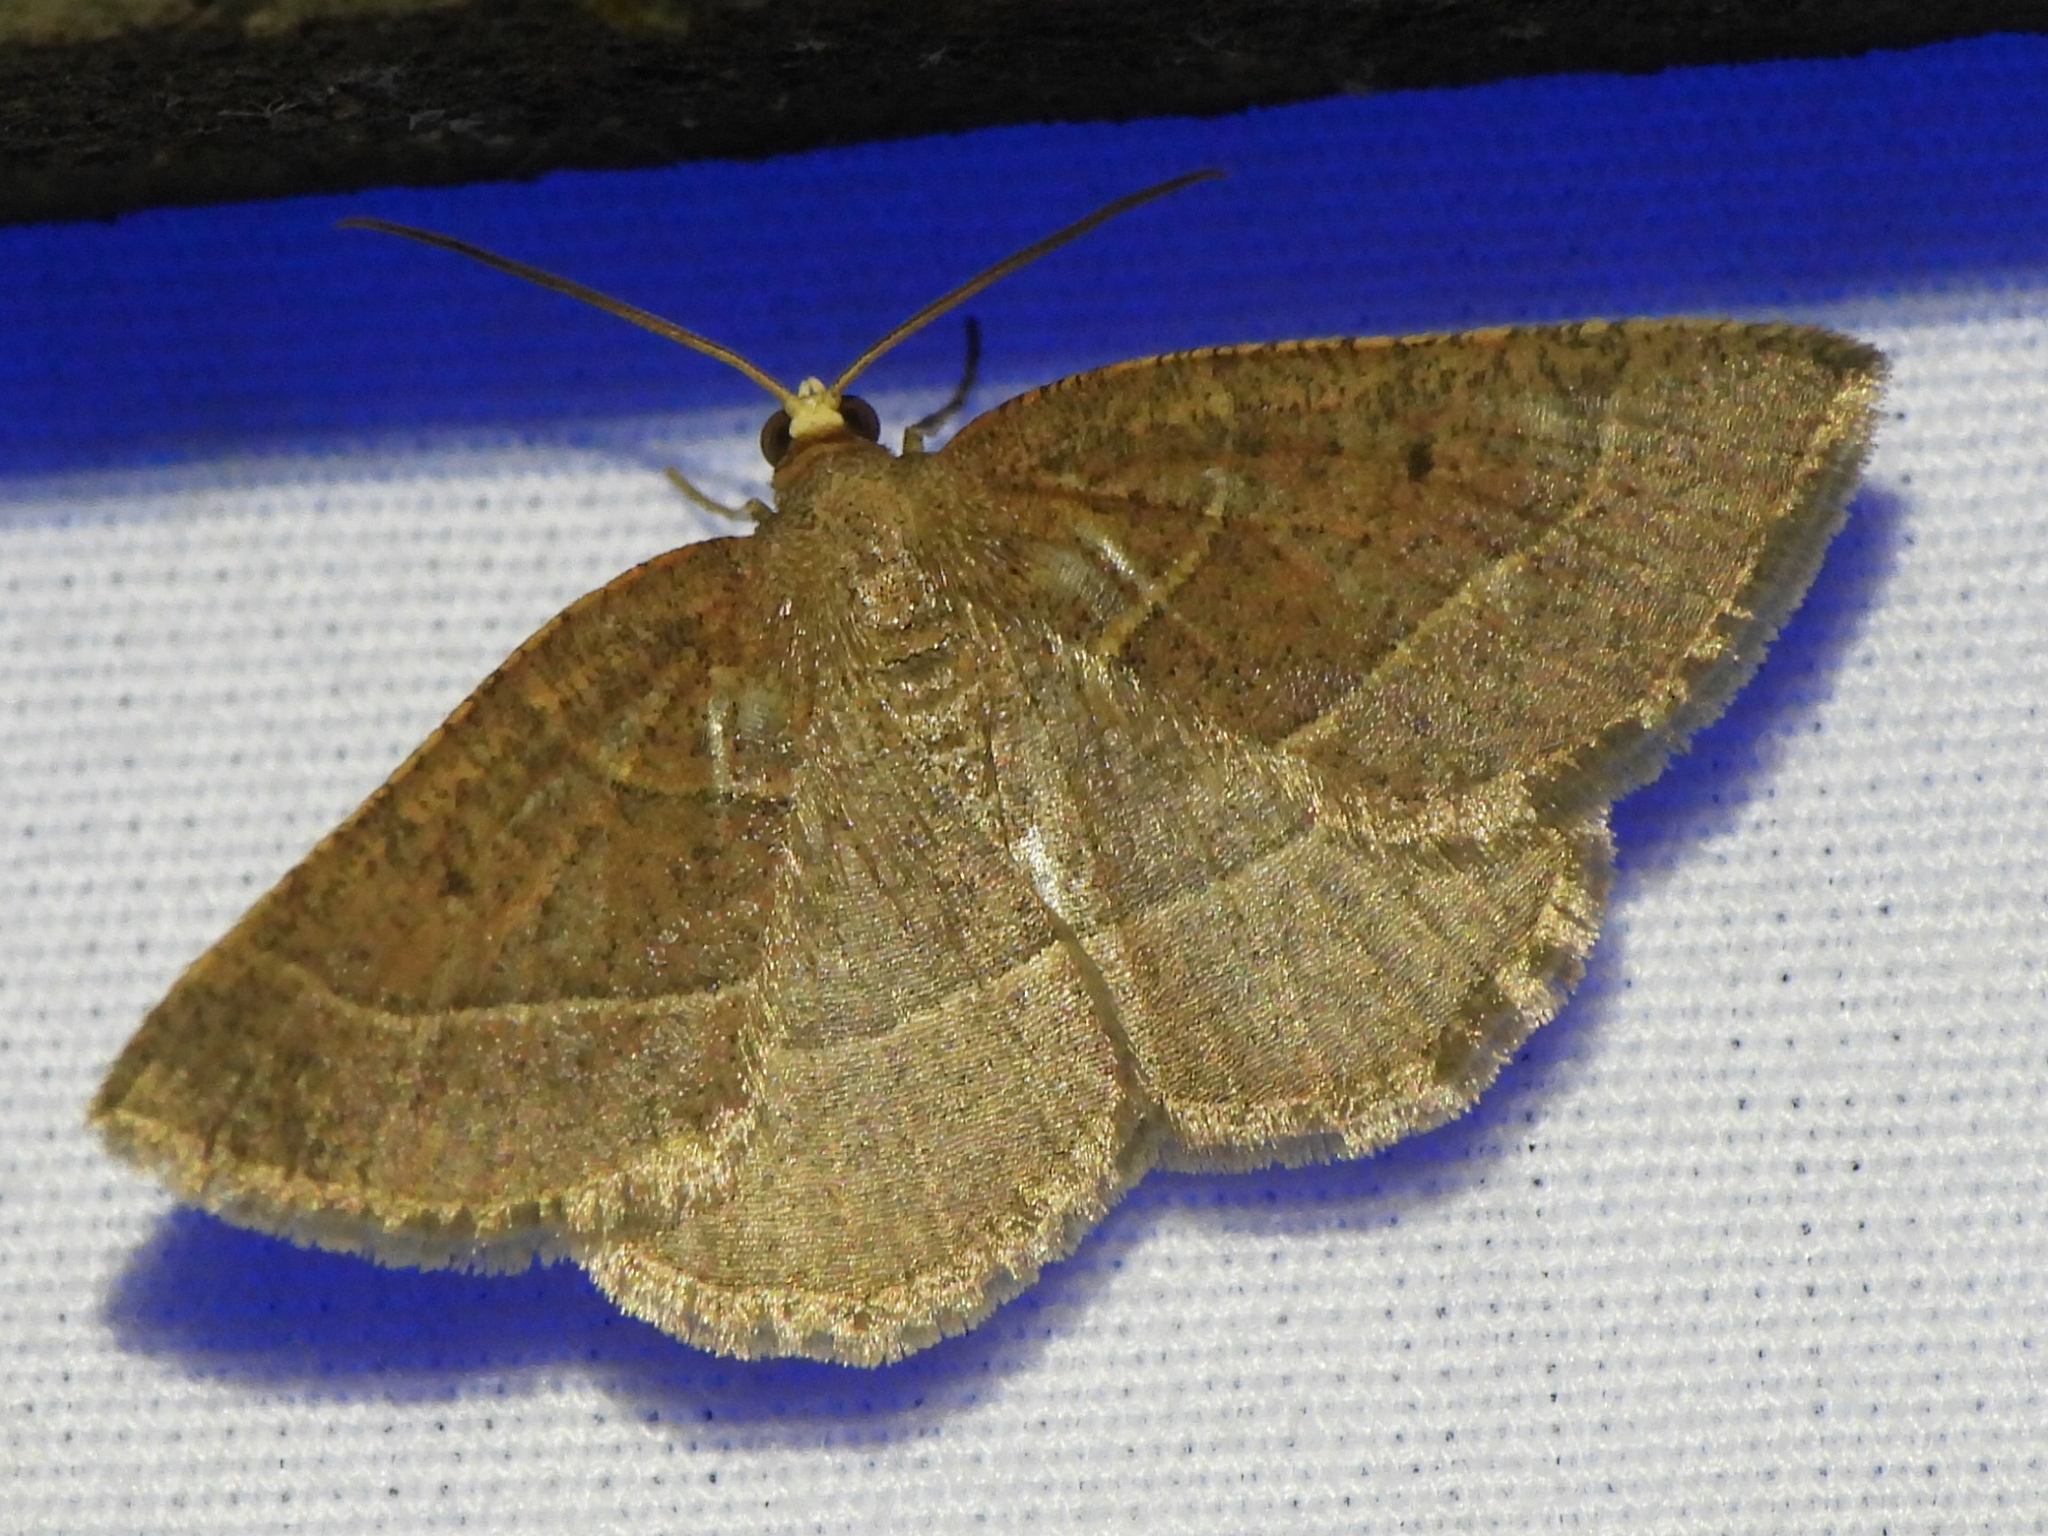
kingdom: Animalia
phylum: Arthropoda
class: Insecta
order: Lepidoptera
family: Geometridae
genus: Episemasia
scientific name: Episemasia cervinaria
